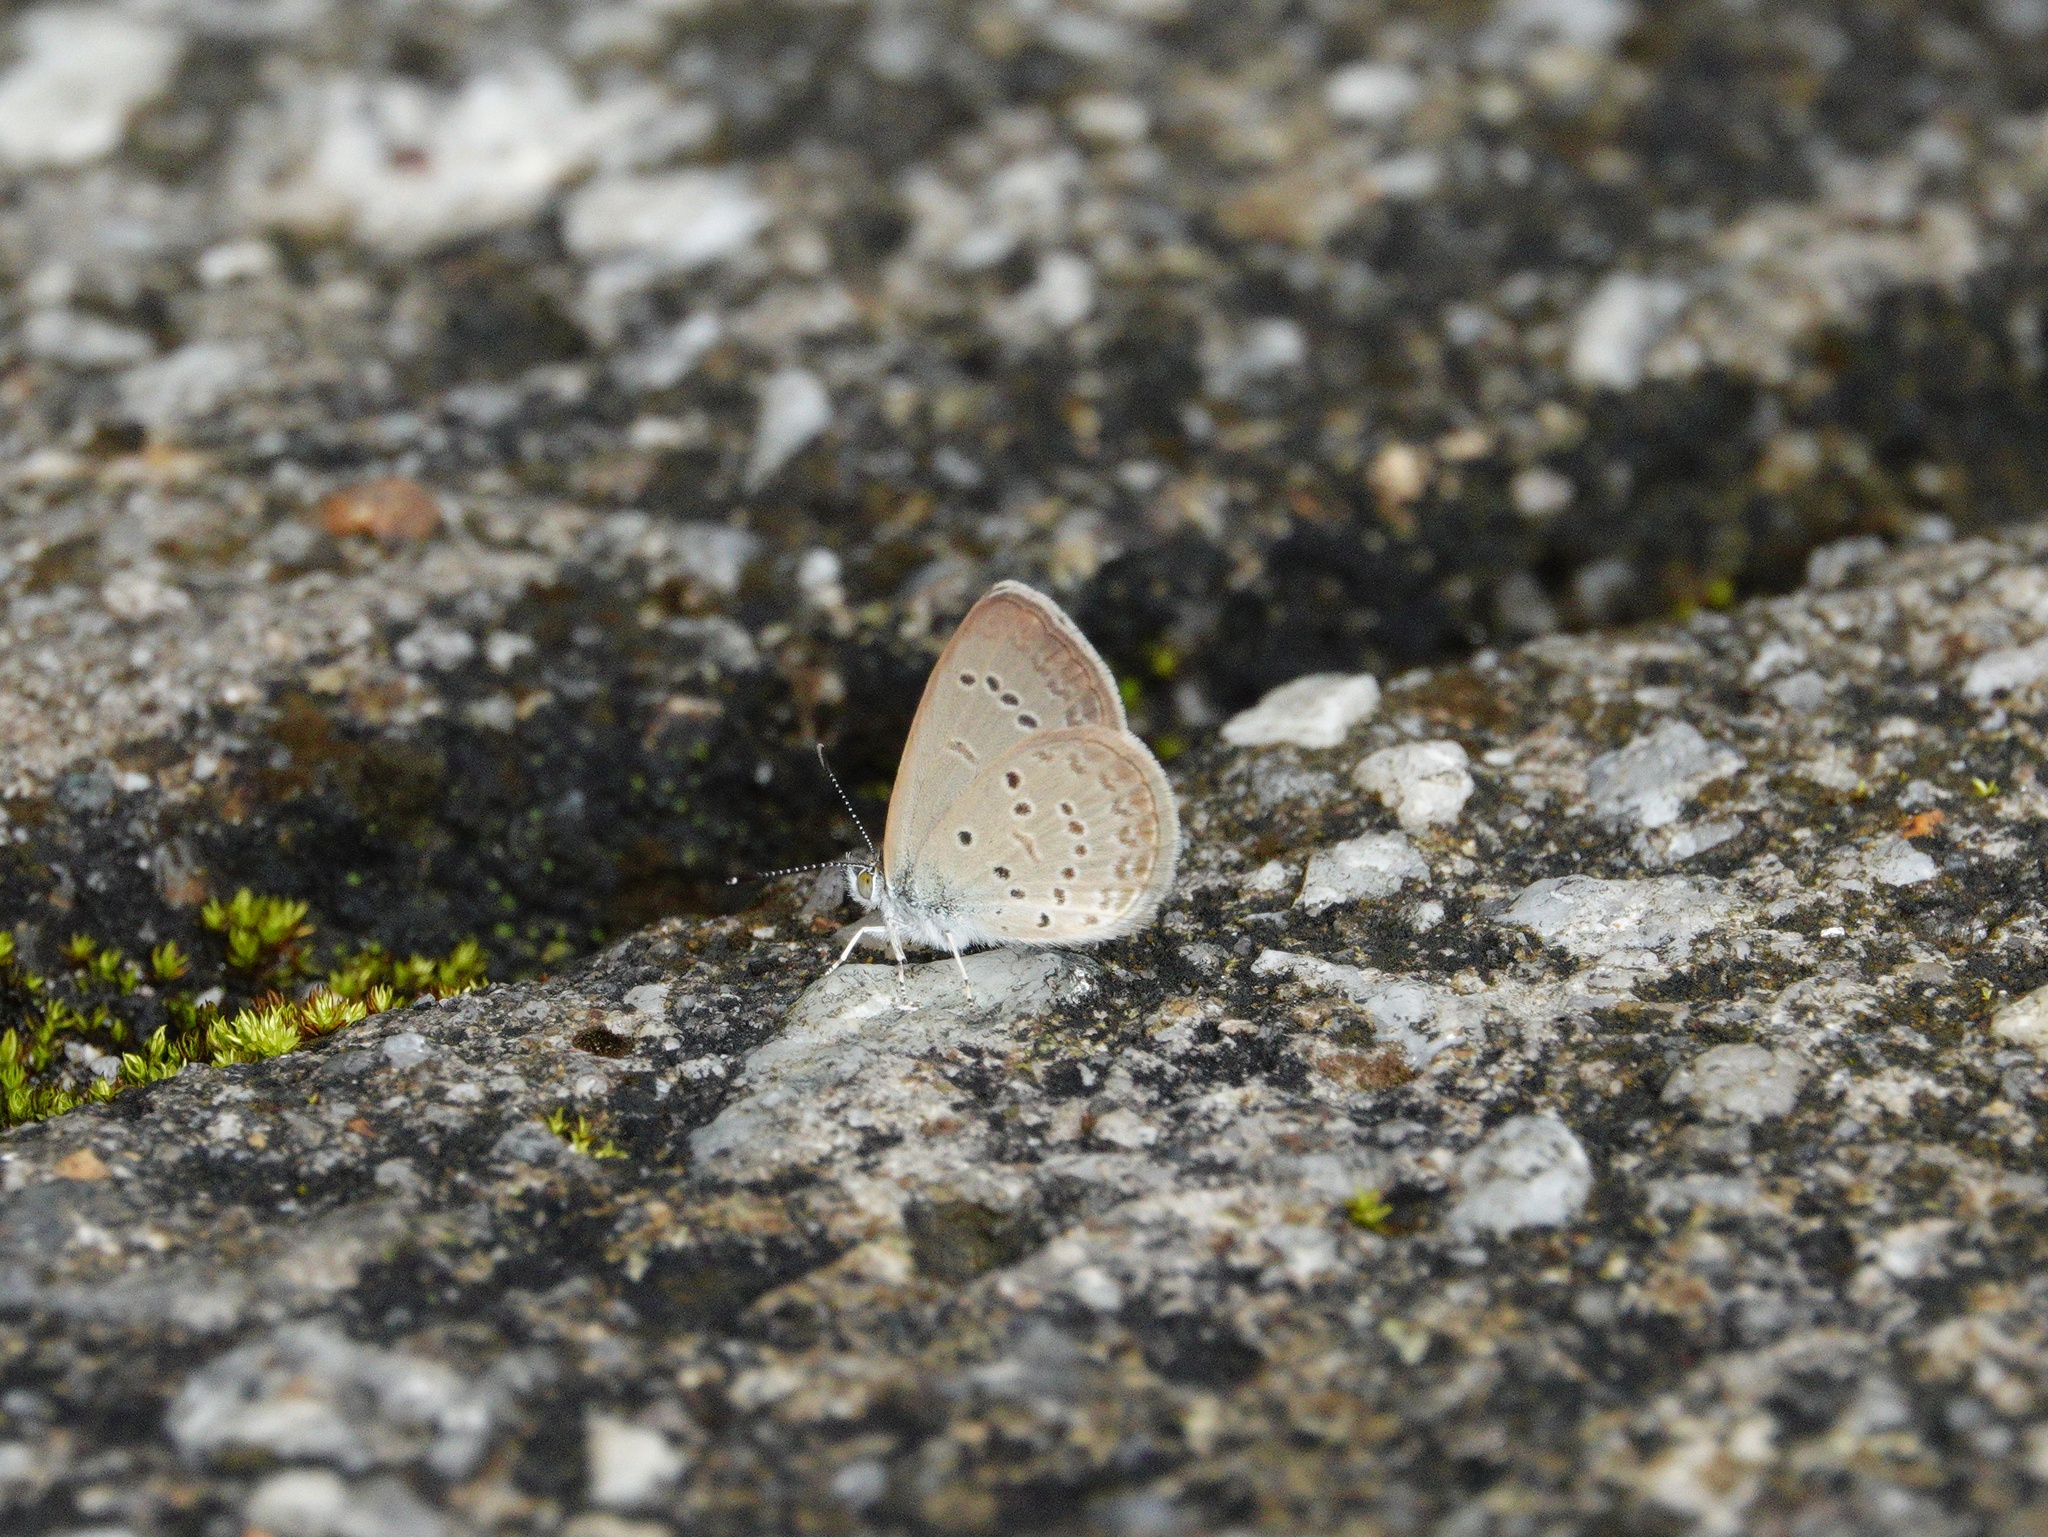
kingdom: Animalia
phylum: Arthropoda
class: Insecta
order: Lepidoptera
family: Lycaenidae
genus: Zizina
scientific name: Zizina otis
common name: Lesser grass blue
